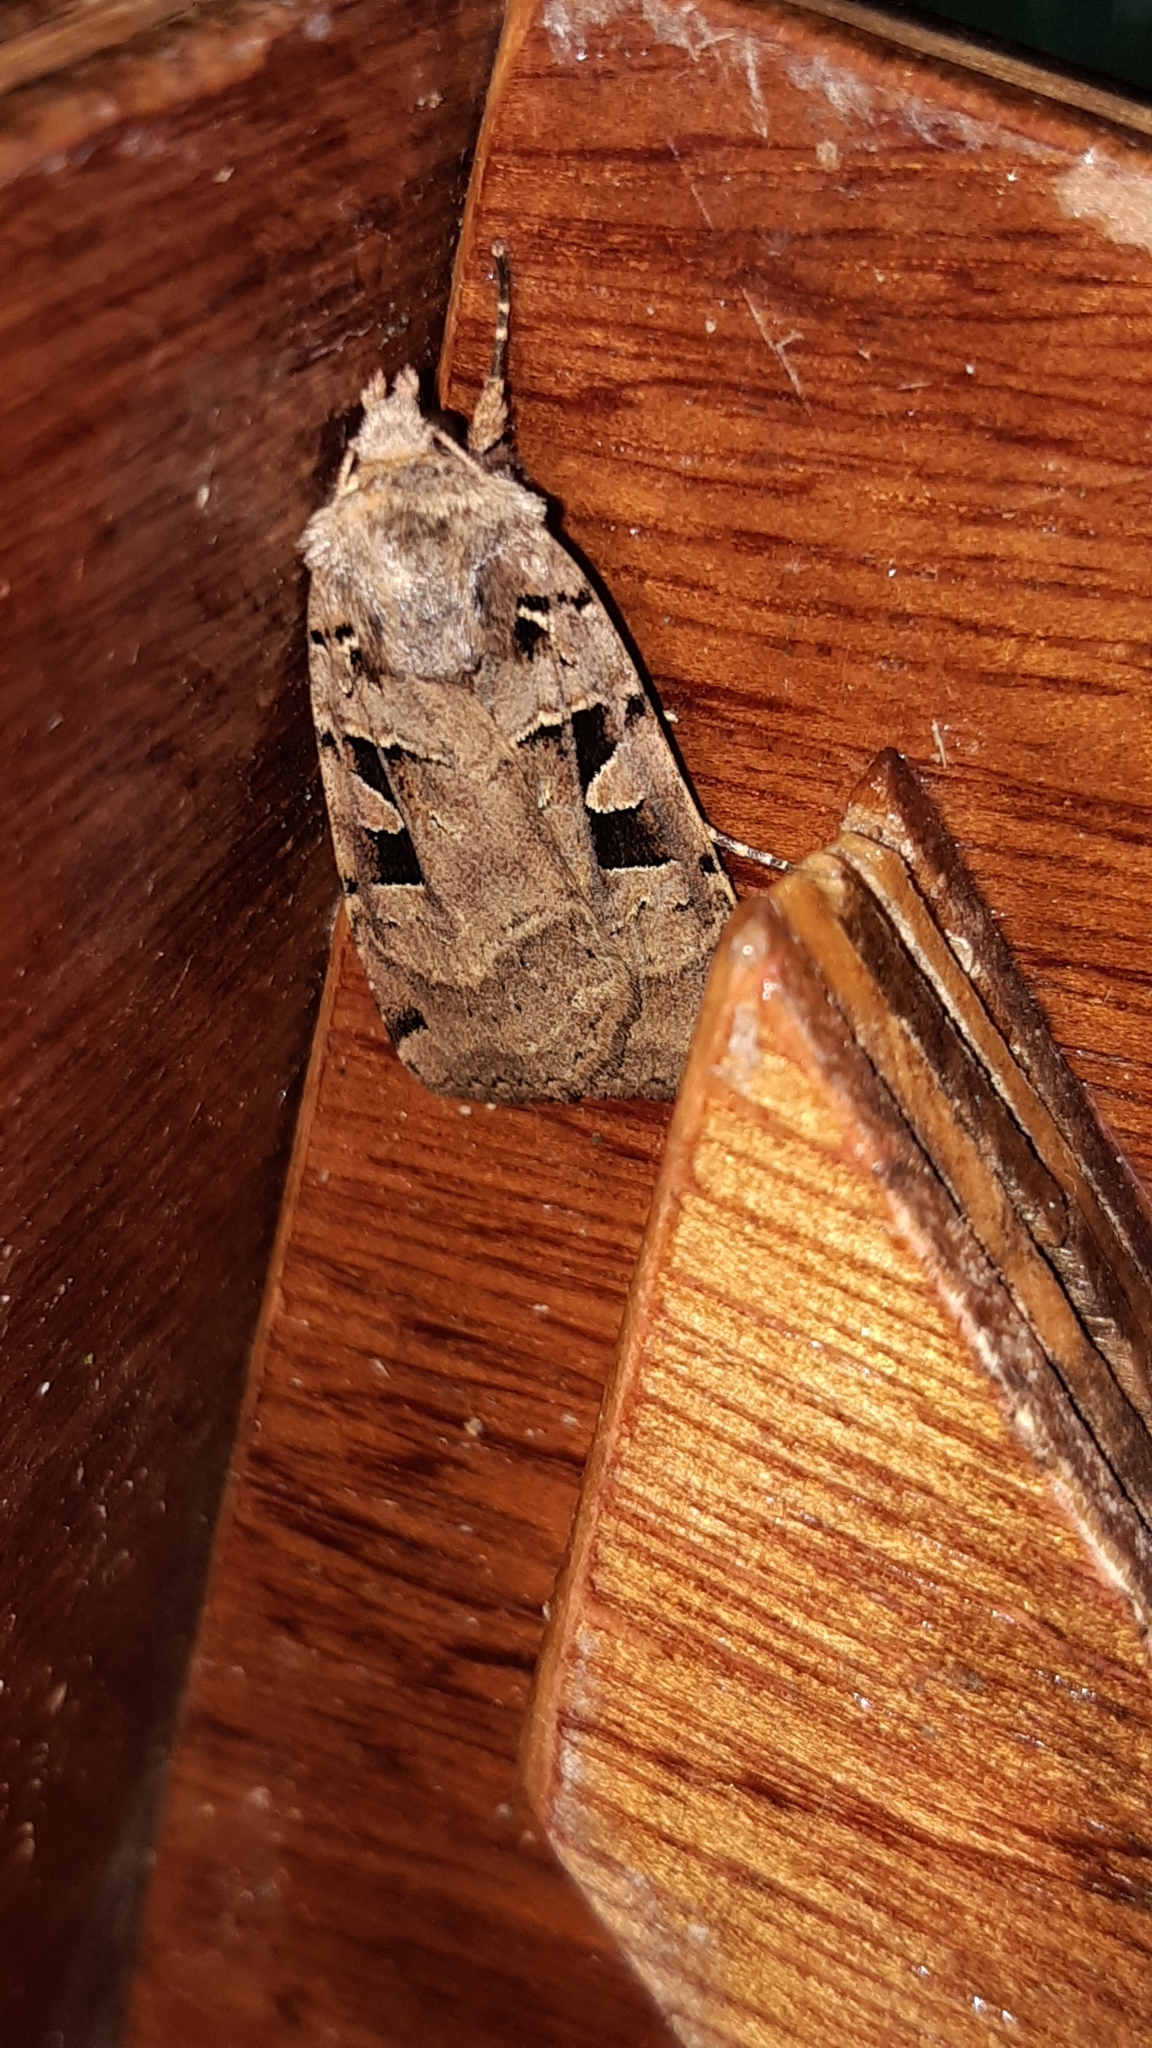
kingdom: Animalia
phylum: Arthropoda
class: Insecta
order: Lepidoptera
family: Noctuidae
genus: Xestia
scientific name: Xestia triangulum
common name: Double square-spot
